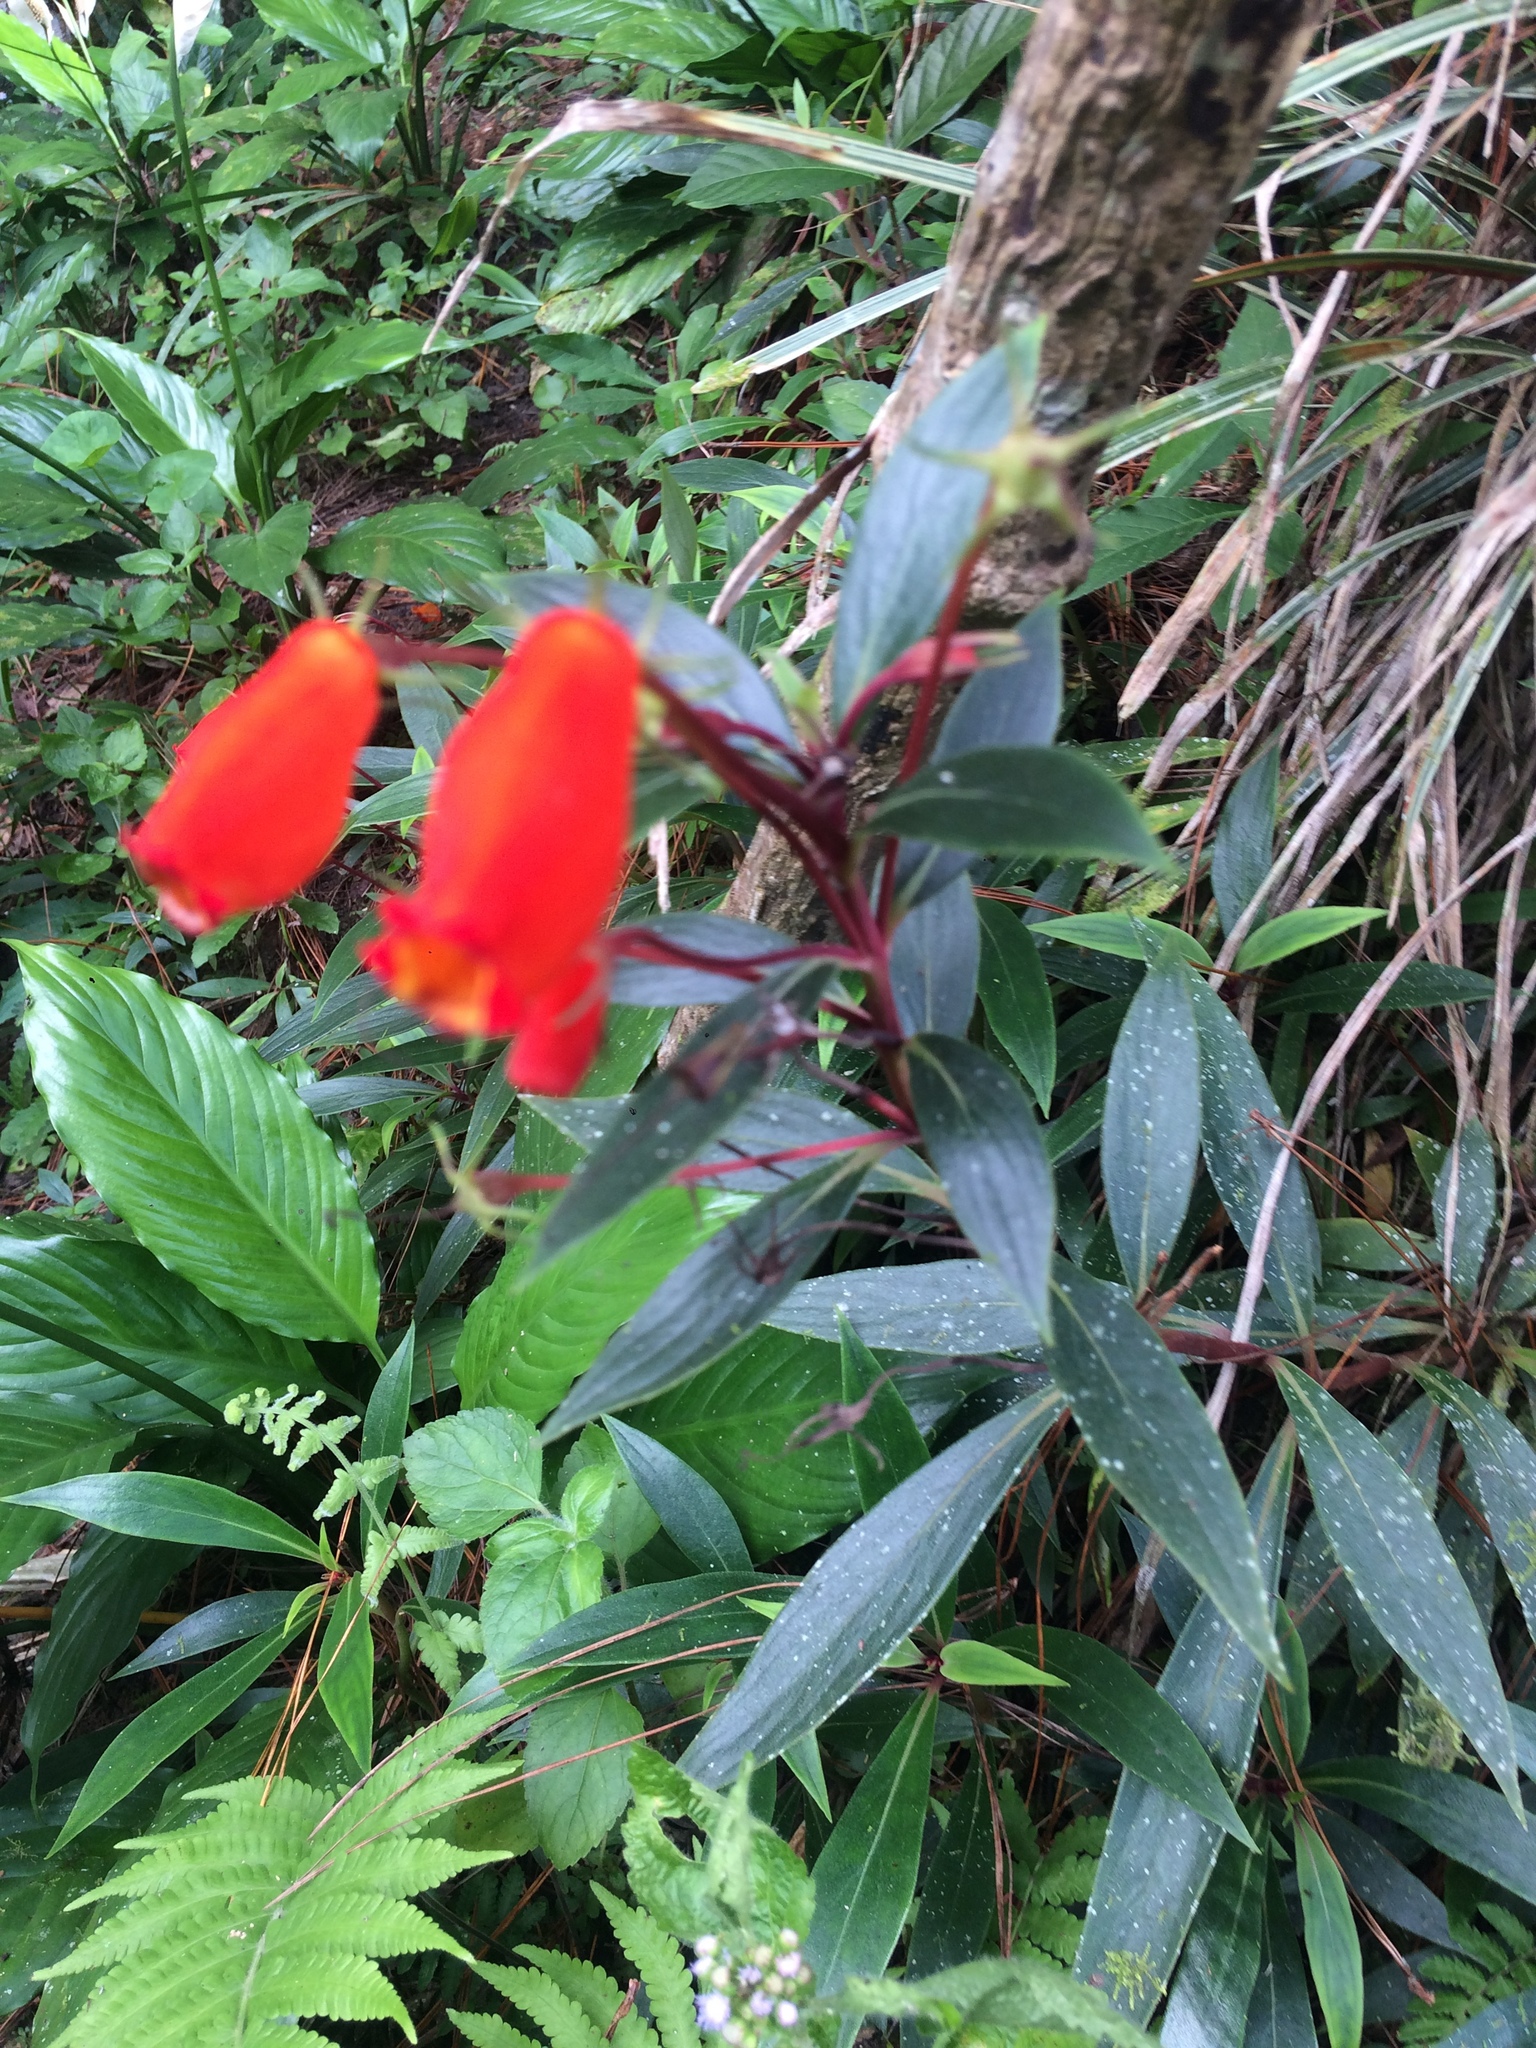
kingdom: Plantae
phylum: Tracheophyta
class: Magnoliopsida
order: Lamiales
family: Gesneriaceae
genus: Seemannia
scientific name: Seemannia sylvatica
